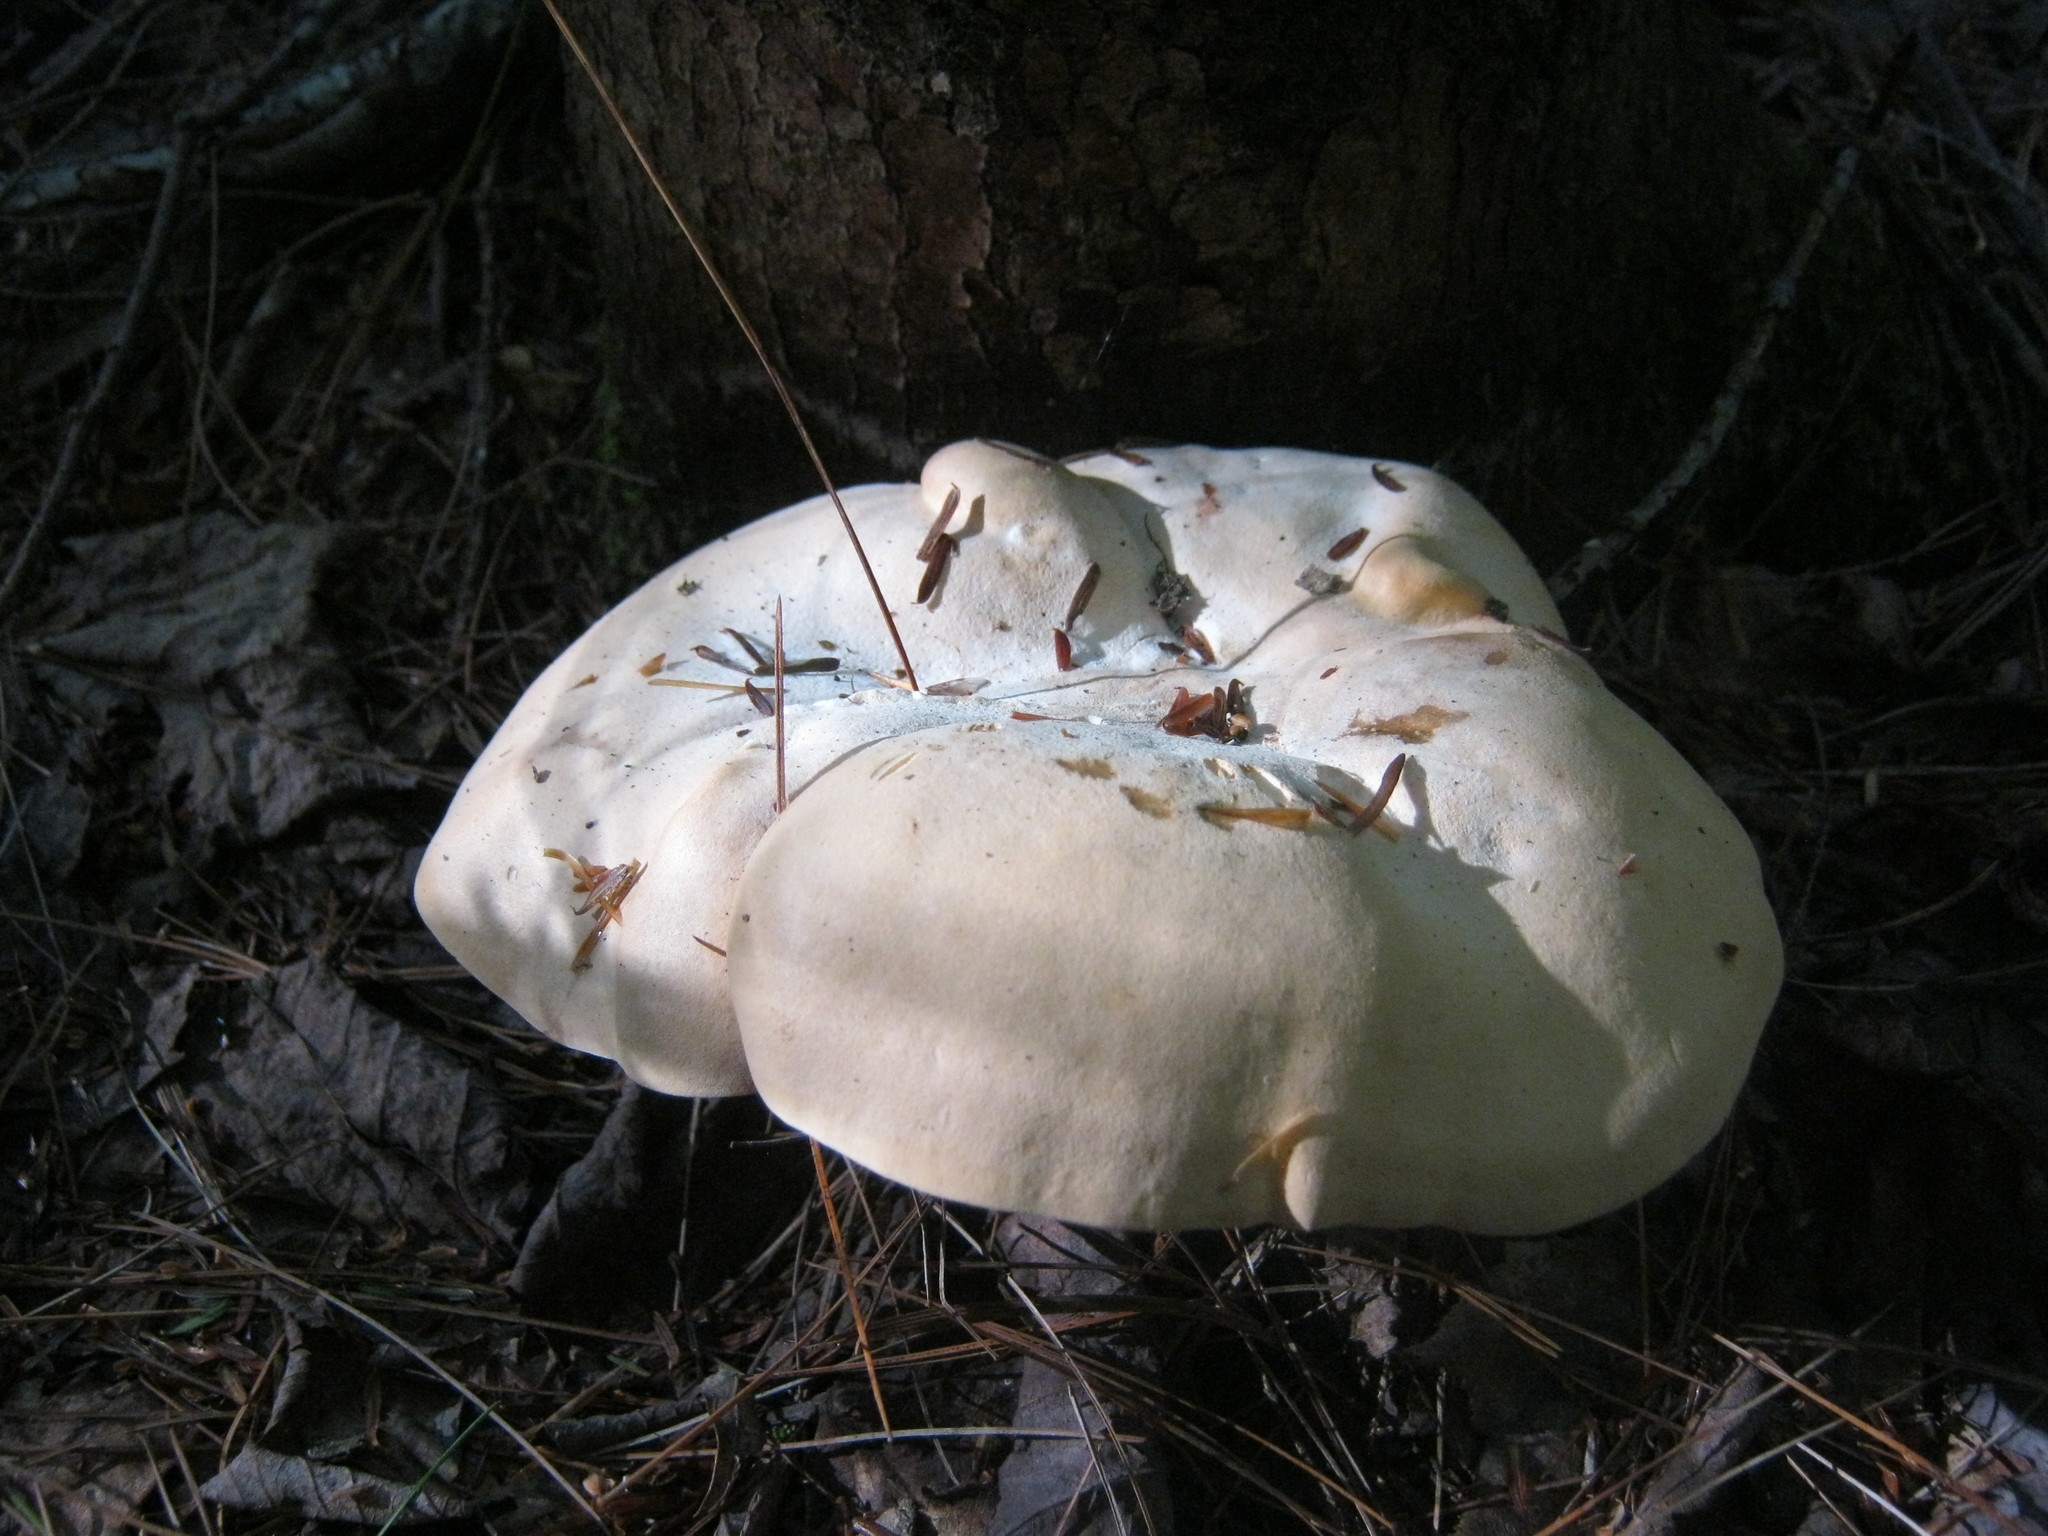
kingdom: Fungi
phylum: Basidiomycota
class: Agaricomycetes
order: Cantharellales
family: Hydnaceae
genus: Hydnum
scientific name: Hydnum albidum
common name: White hedgehog
